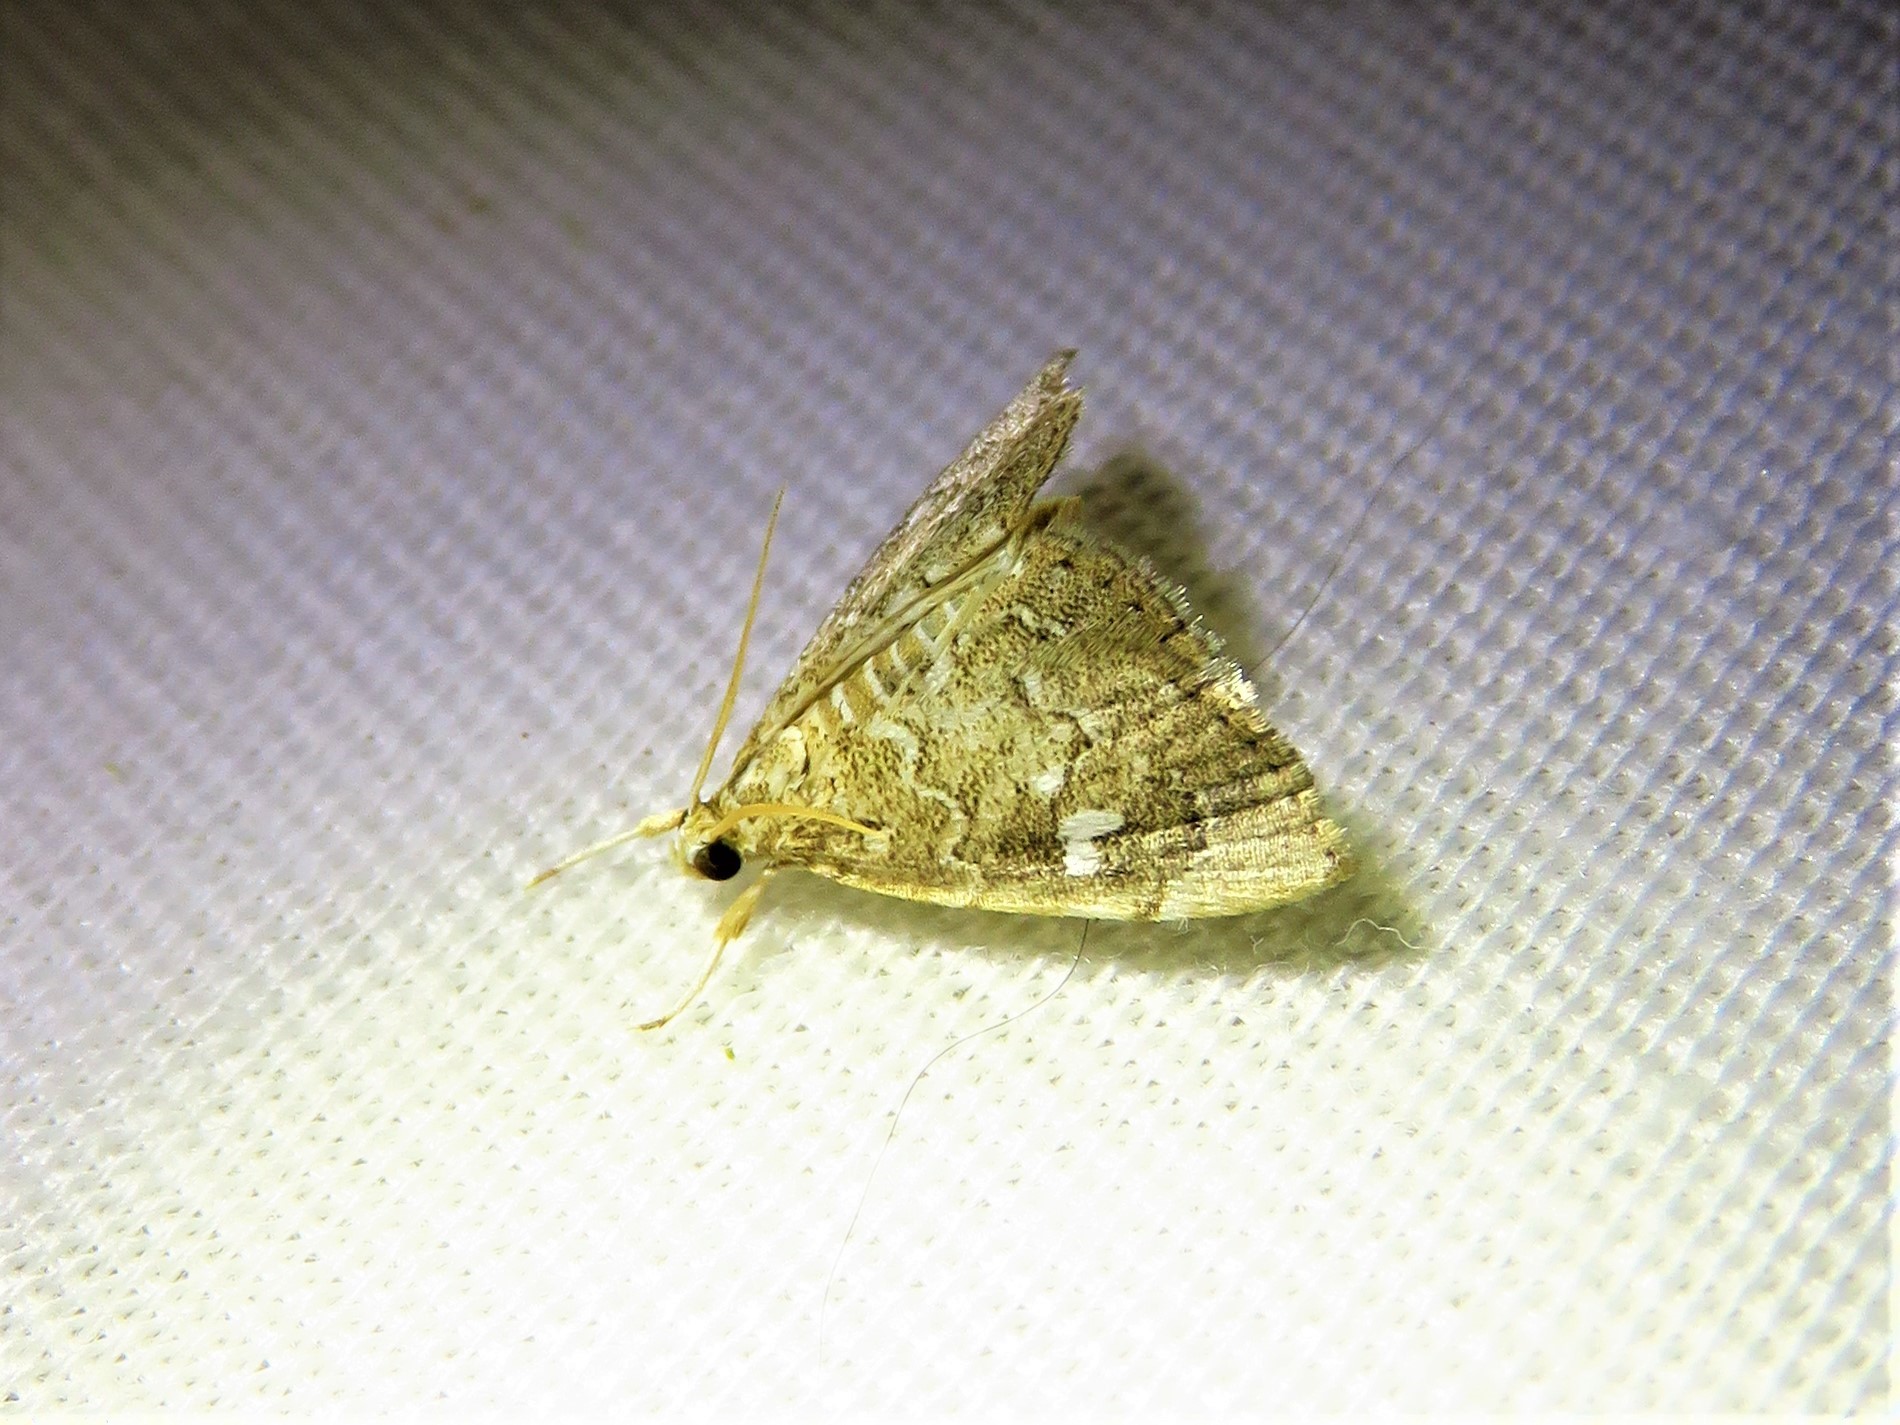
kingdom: Animalia
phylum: Arthropoda
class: Insecta
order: Lepidoptera
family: Crambidae
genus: Nephrogramma
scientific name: Nephrogramma reniculalis
